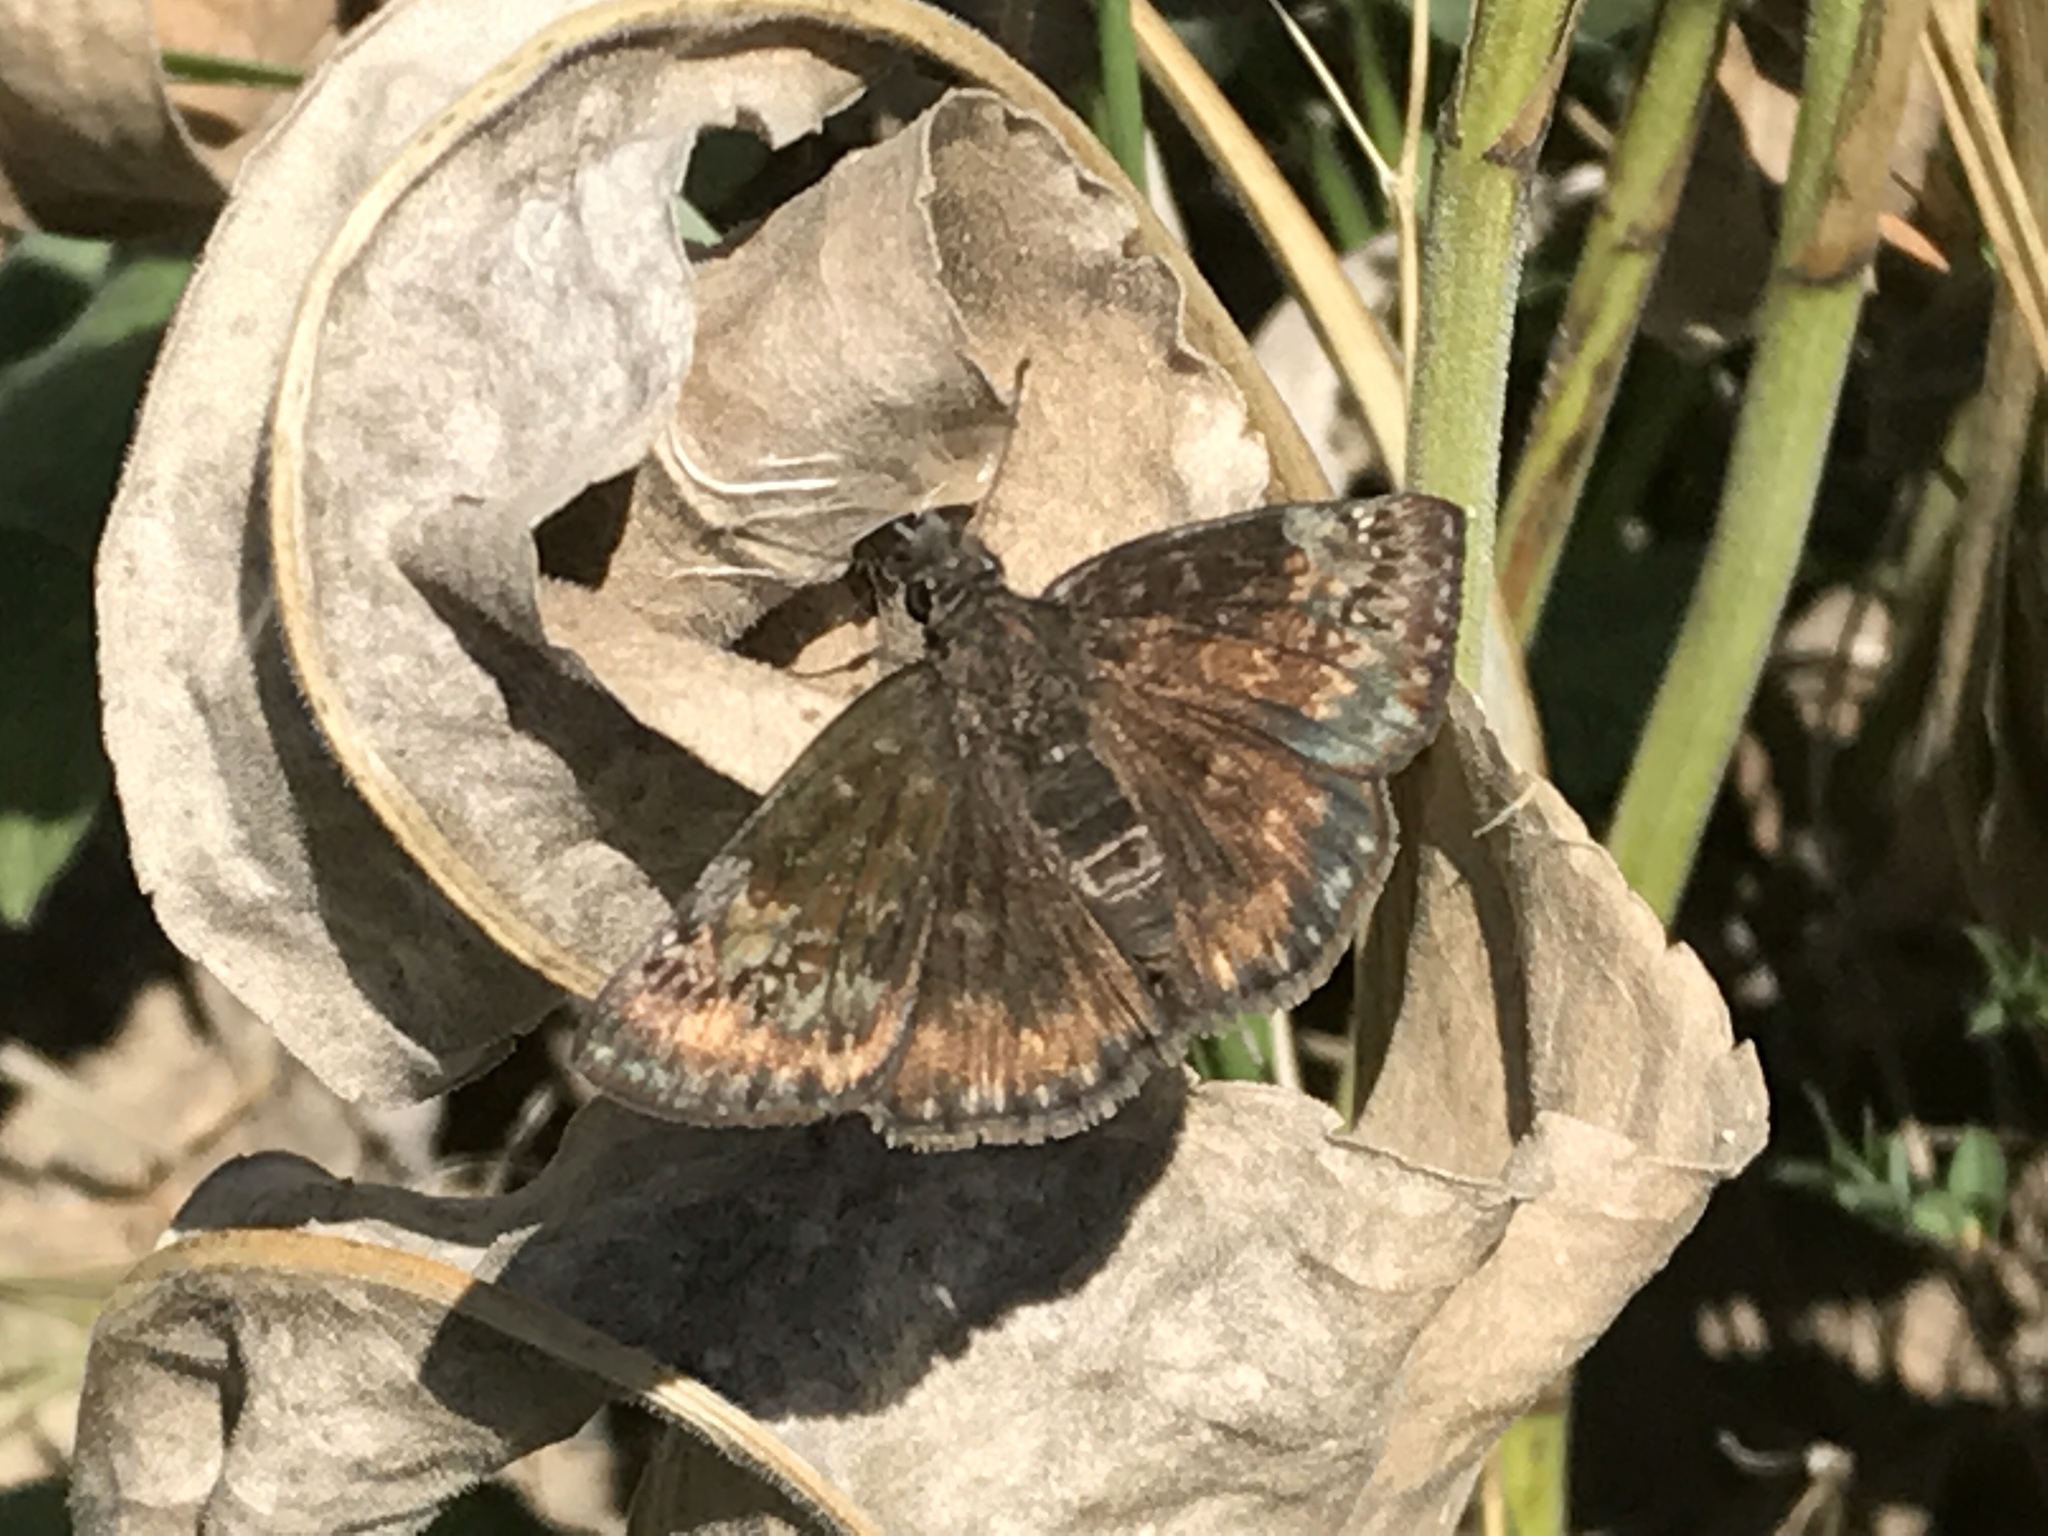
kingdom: Animalia
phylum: Arthropoda
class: Insecta
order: Lepidoptera
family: Hesperiidae
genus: Erynnis
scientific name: Erynnis baptisiae
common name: Wild indigo duskywing
